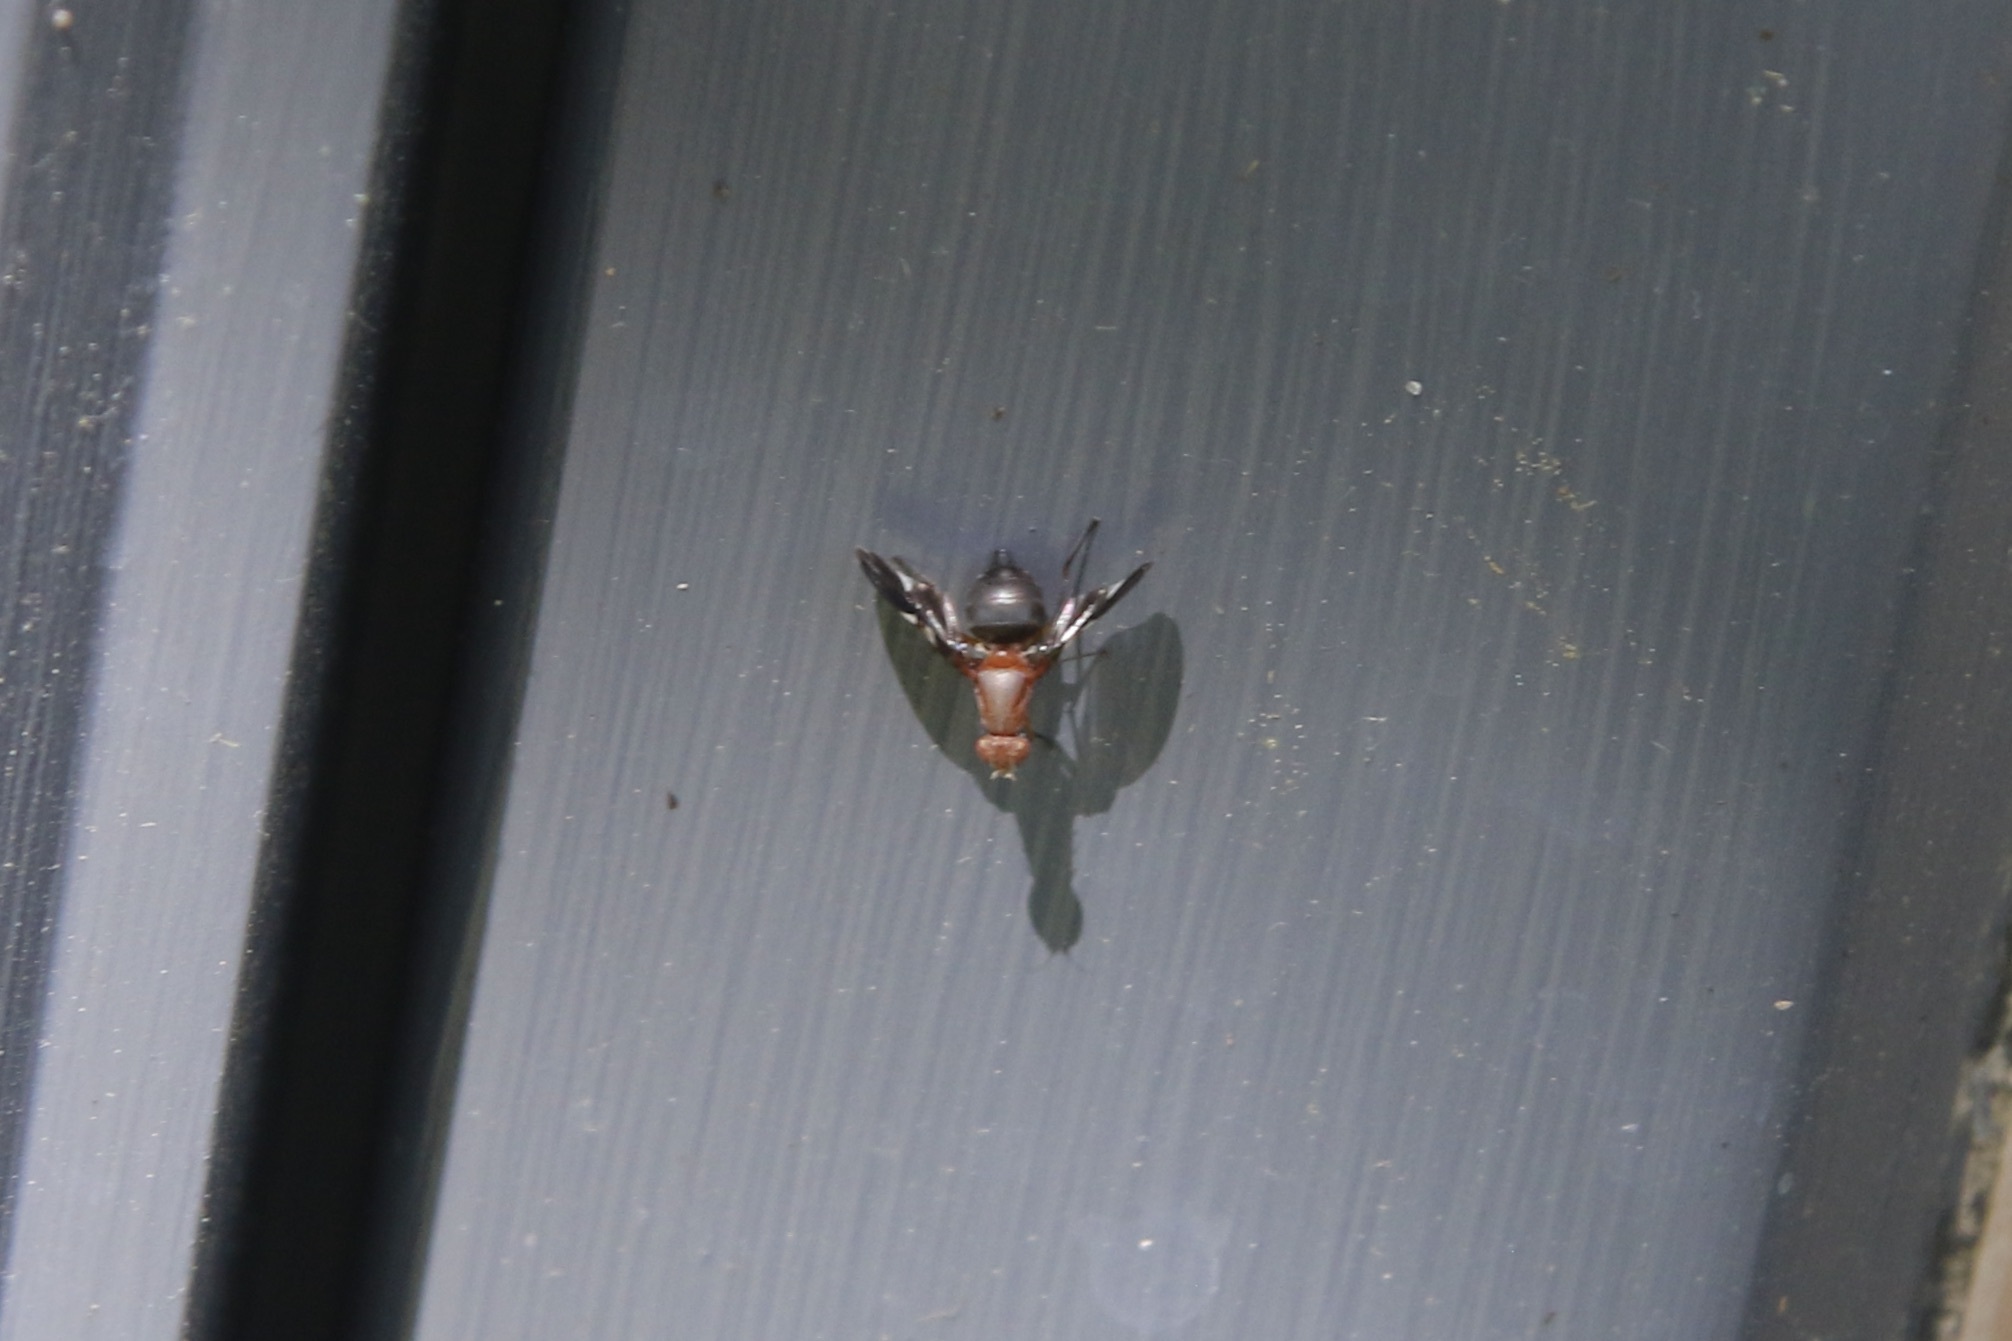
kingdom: Animalia
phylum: Arthropoda
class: Insecta
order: Diptera
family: Ulidiidae
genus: Delphinia
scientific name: Delphinia picta
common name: Common picture-winged fly
